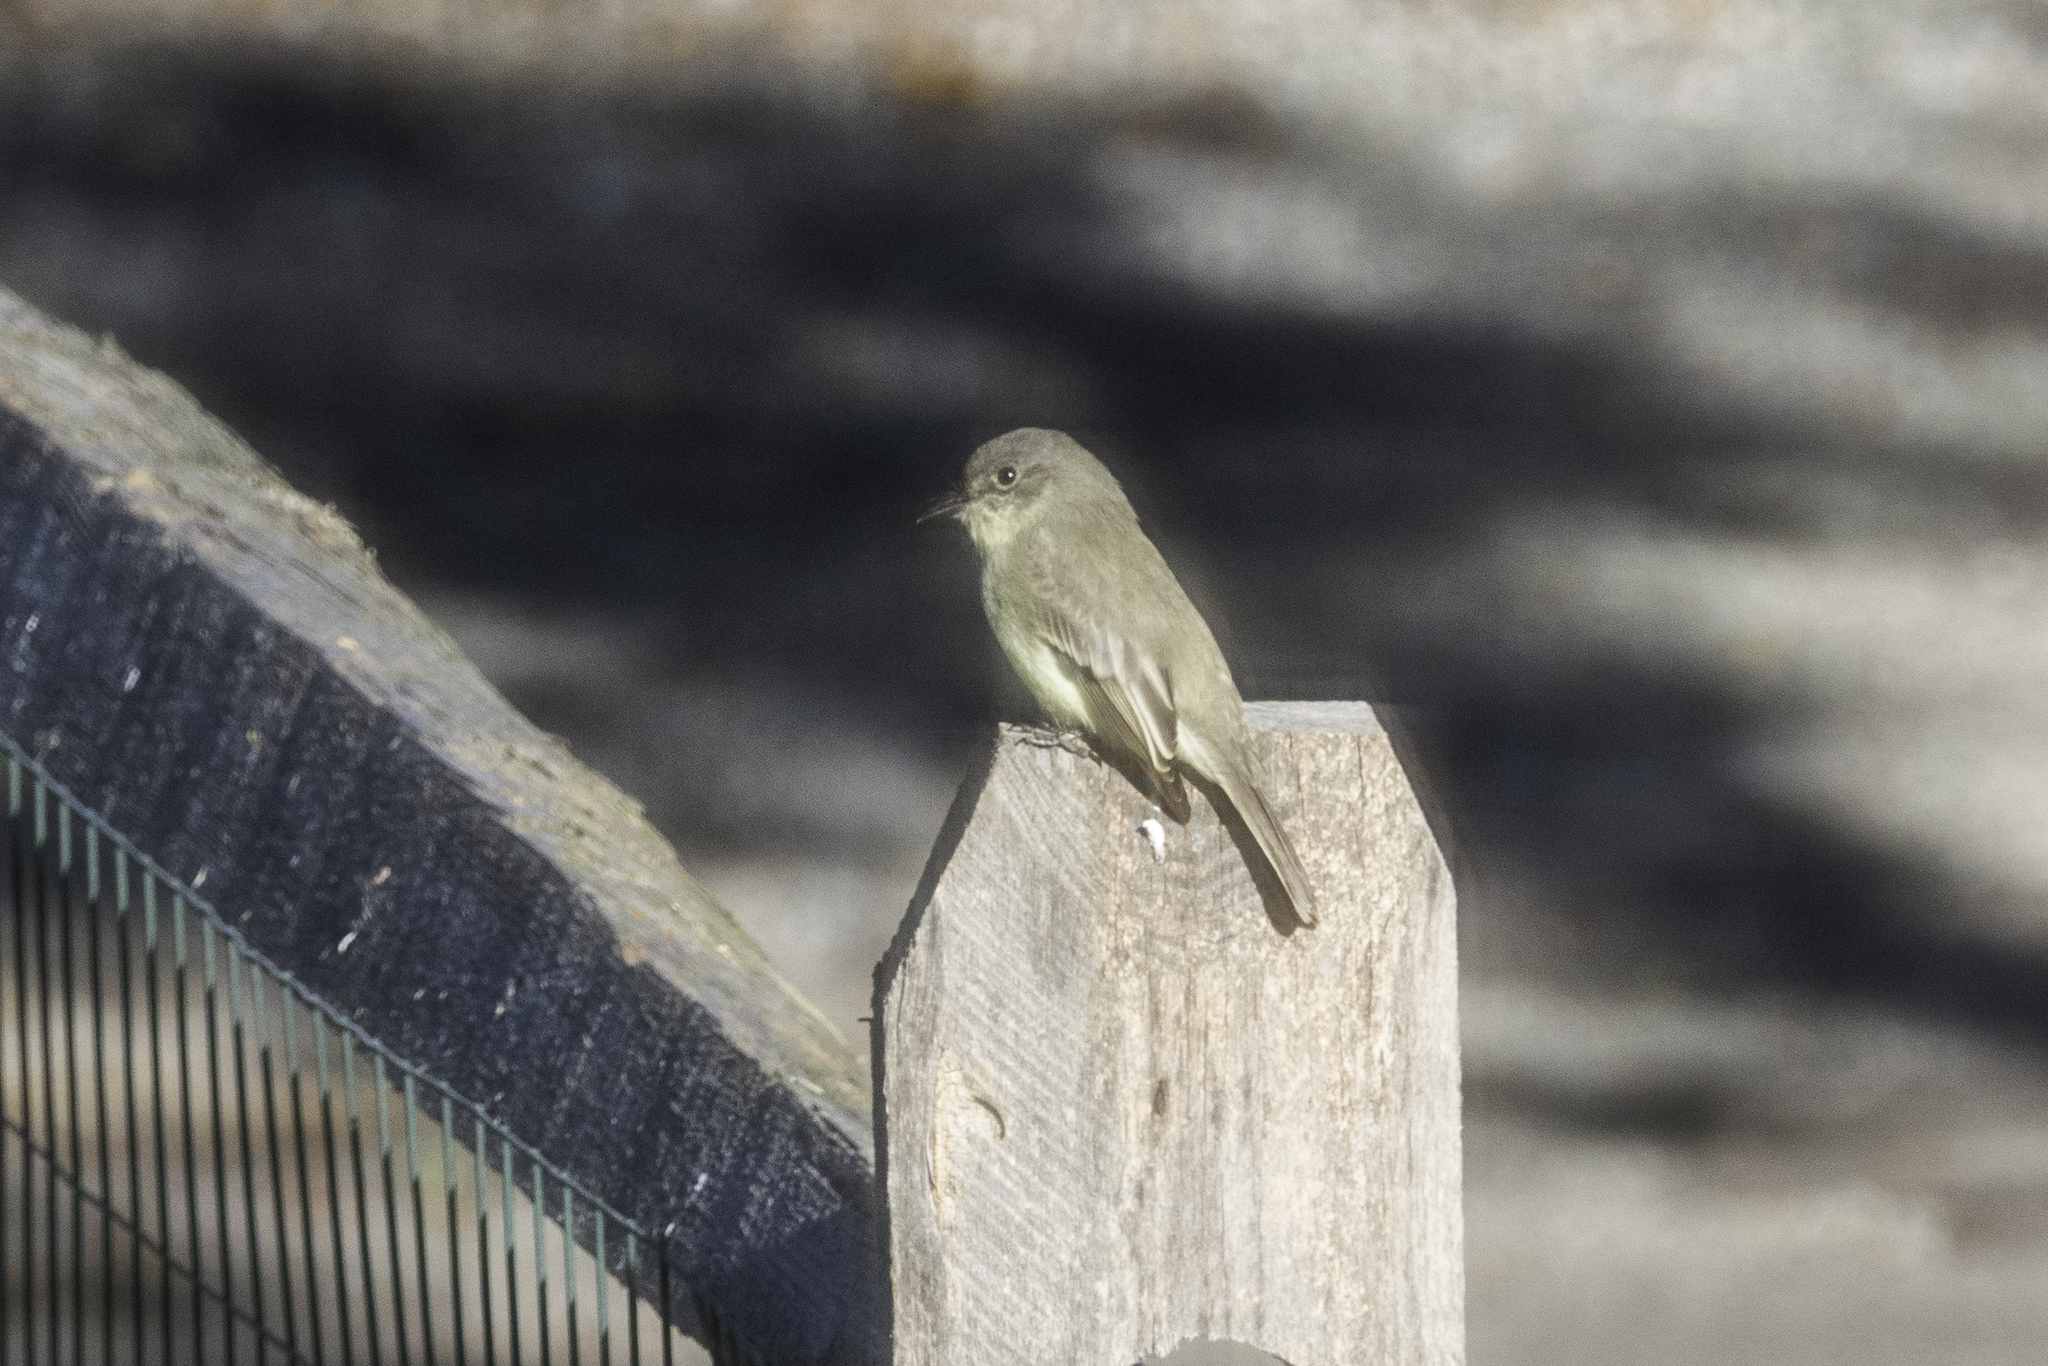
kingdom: Animalia
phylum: Chordata
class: Aves
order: Passeriformes
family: Tyrannidae
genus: Sayornis
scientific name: Sayornis phoebe
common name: Eastern phoebe
